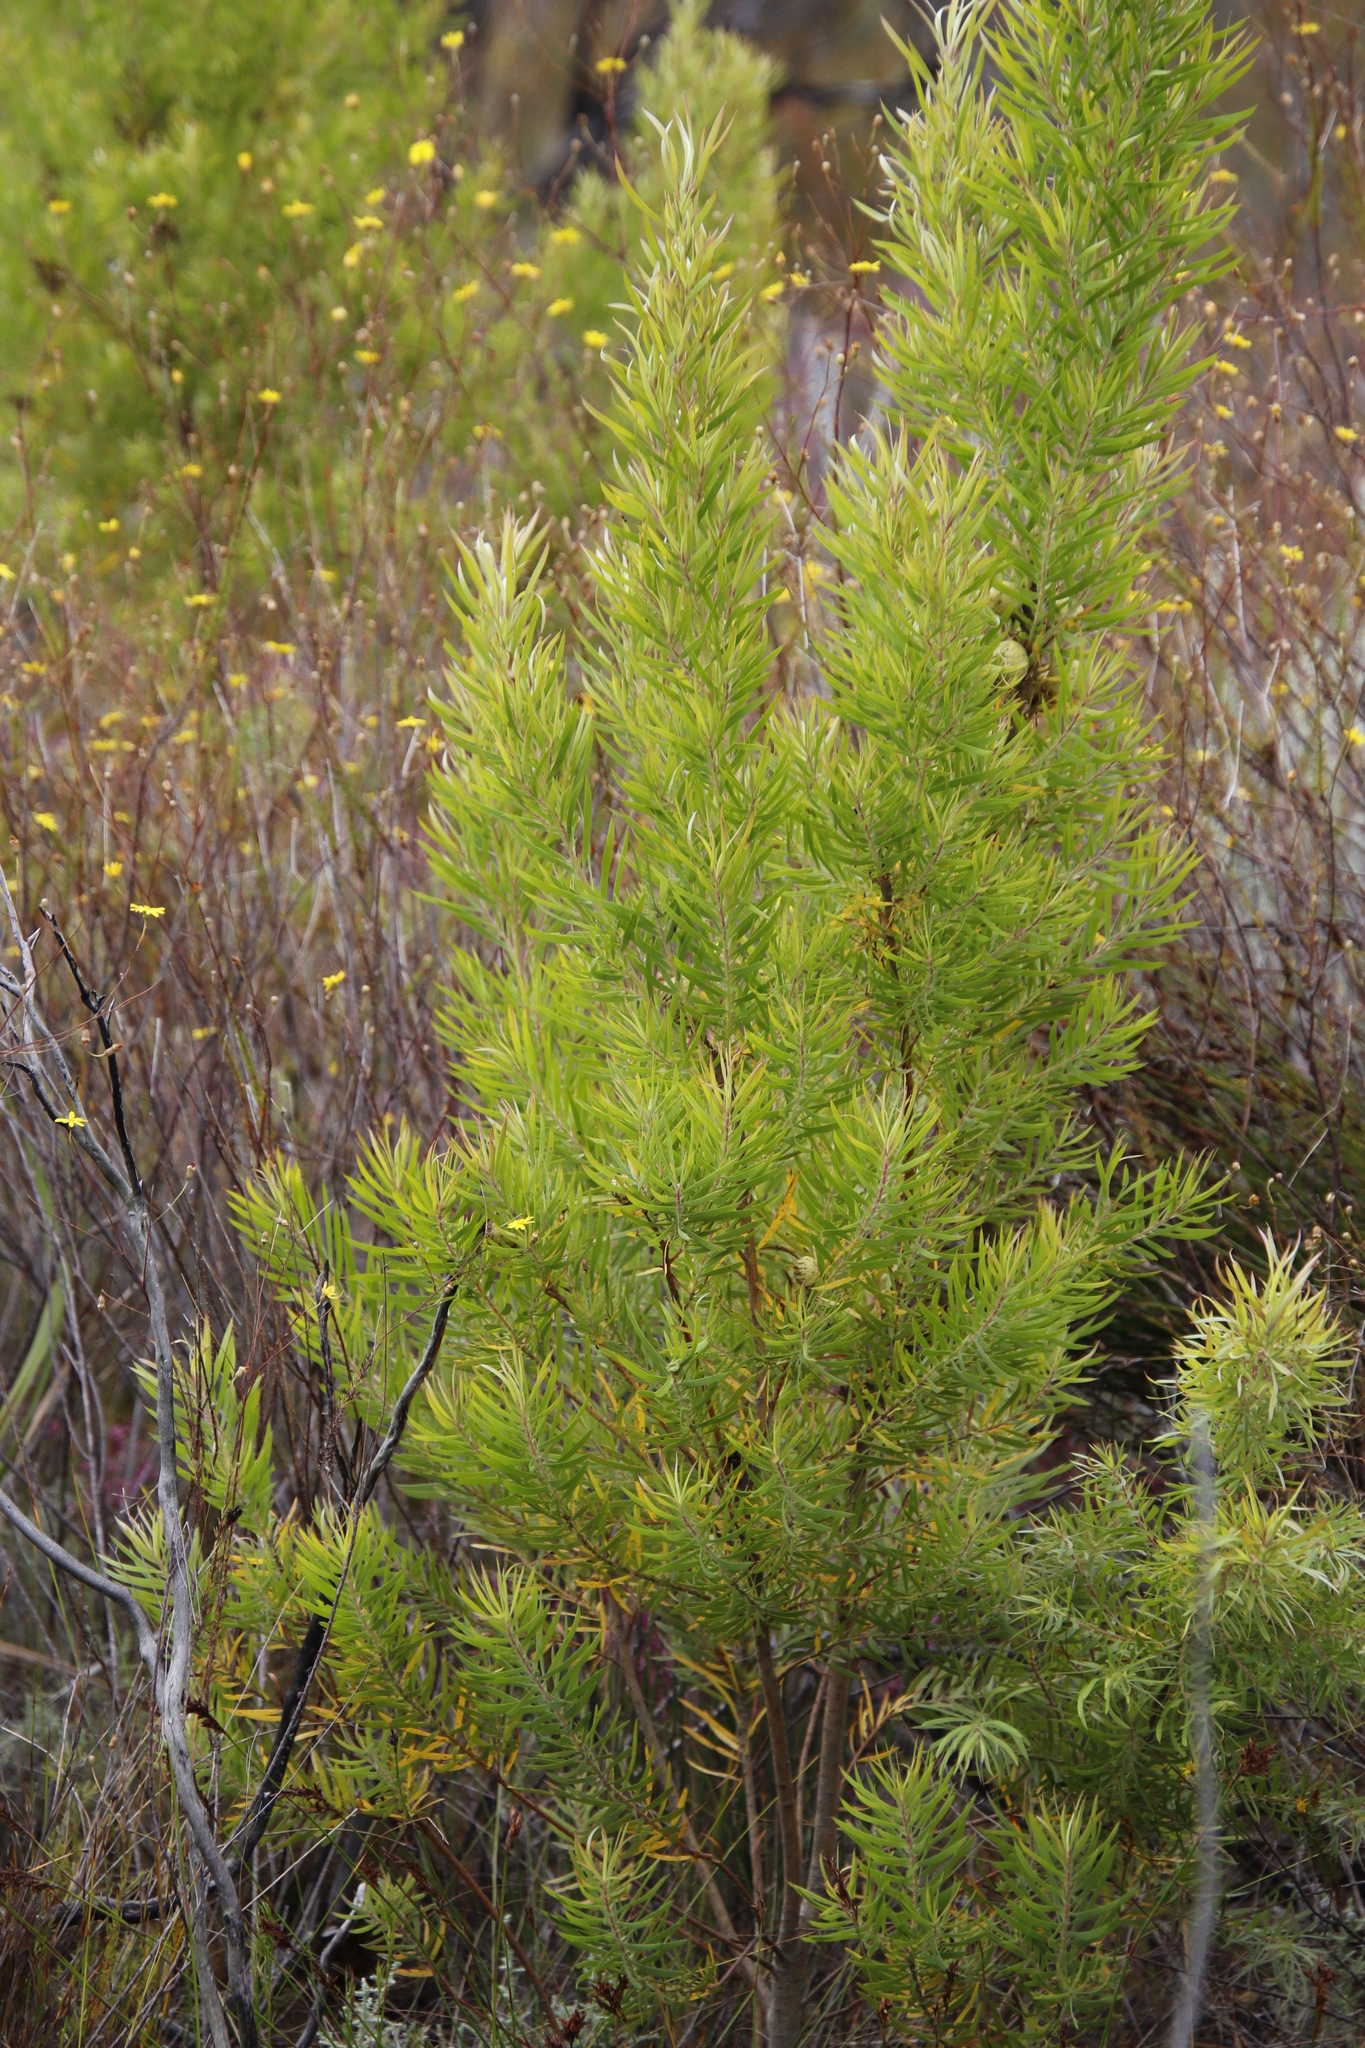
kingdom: Plantae
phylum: Tracheophyta
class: Magnoliopsida
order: Proteales
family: Proteaceae
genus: Leucadendron
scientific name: Leucadendron salicifolium
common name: Common stream conebush
